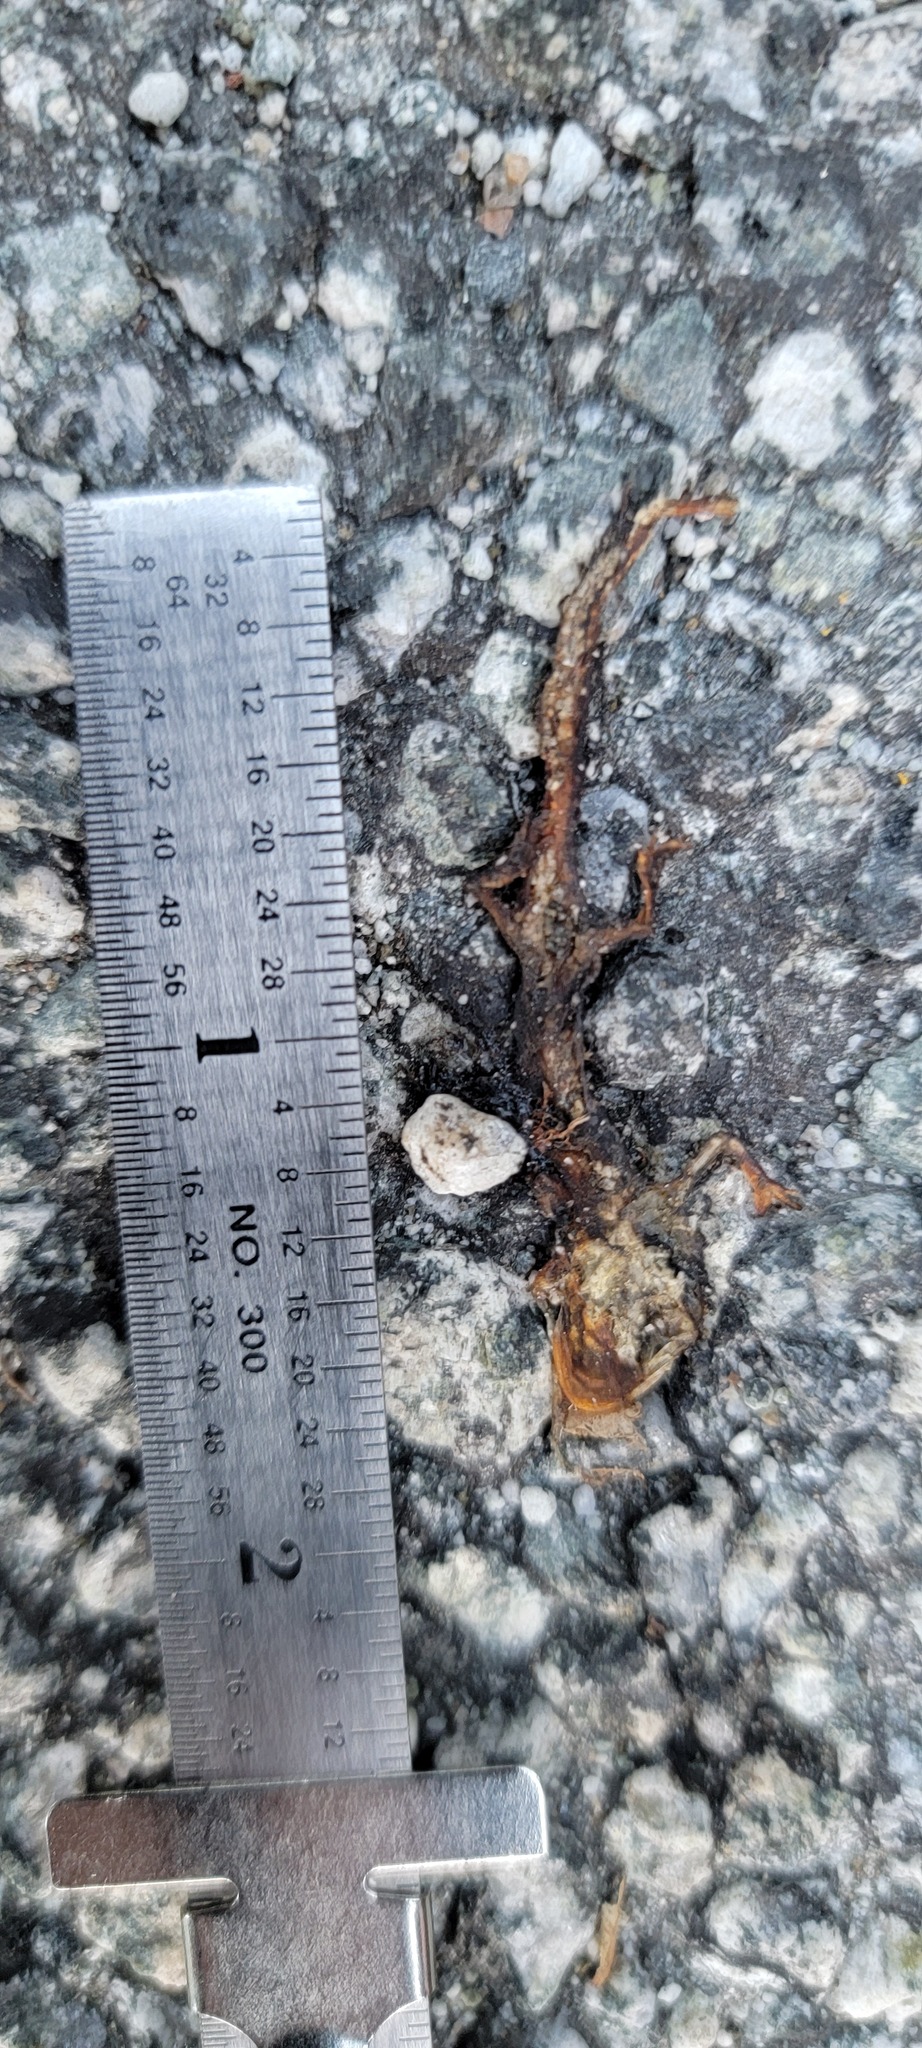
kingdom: Animalia
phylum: Chordata
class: Amphibia
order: Caudata
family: Salamandridae
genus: Taricha
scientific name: Taricha
